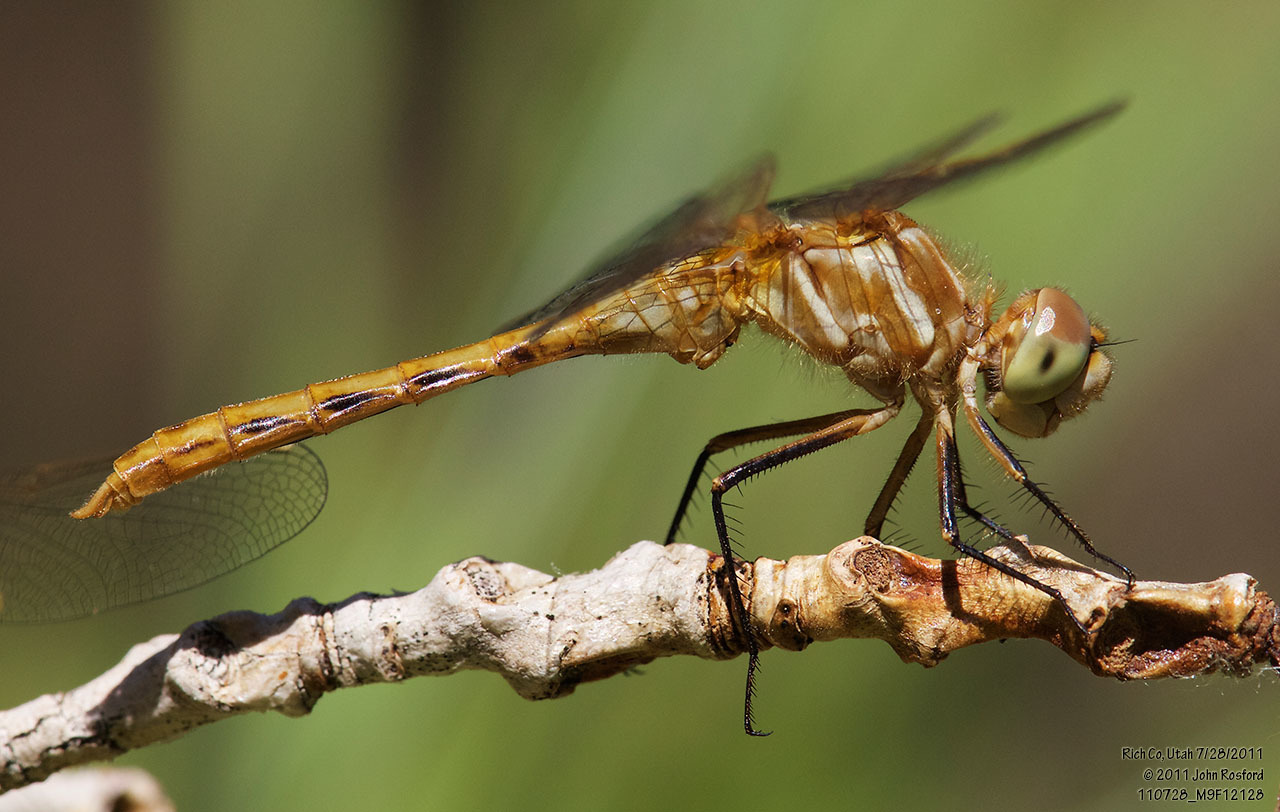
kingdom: Animalia
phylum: Arthropoda
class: Insecta
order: Odonata
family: Libellulidae
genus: Sympetrum
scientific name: Sympetrum pallipes
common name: Striped meadowhawk
